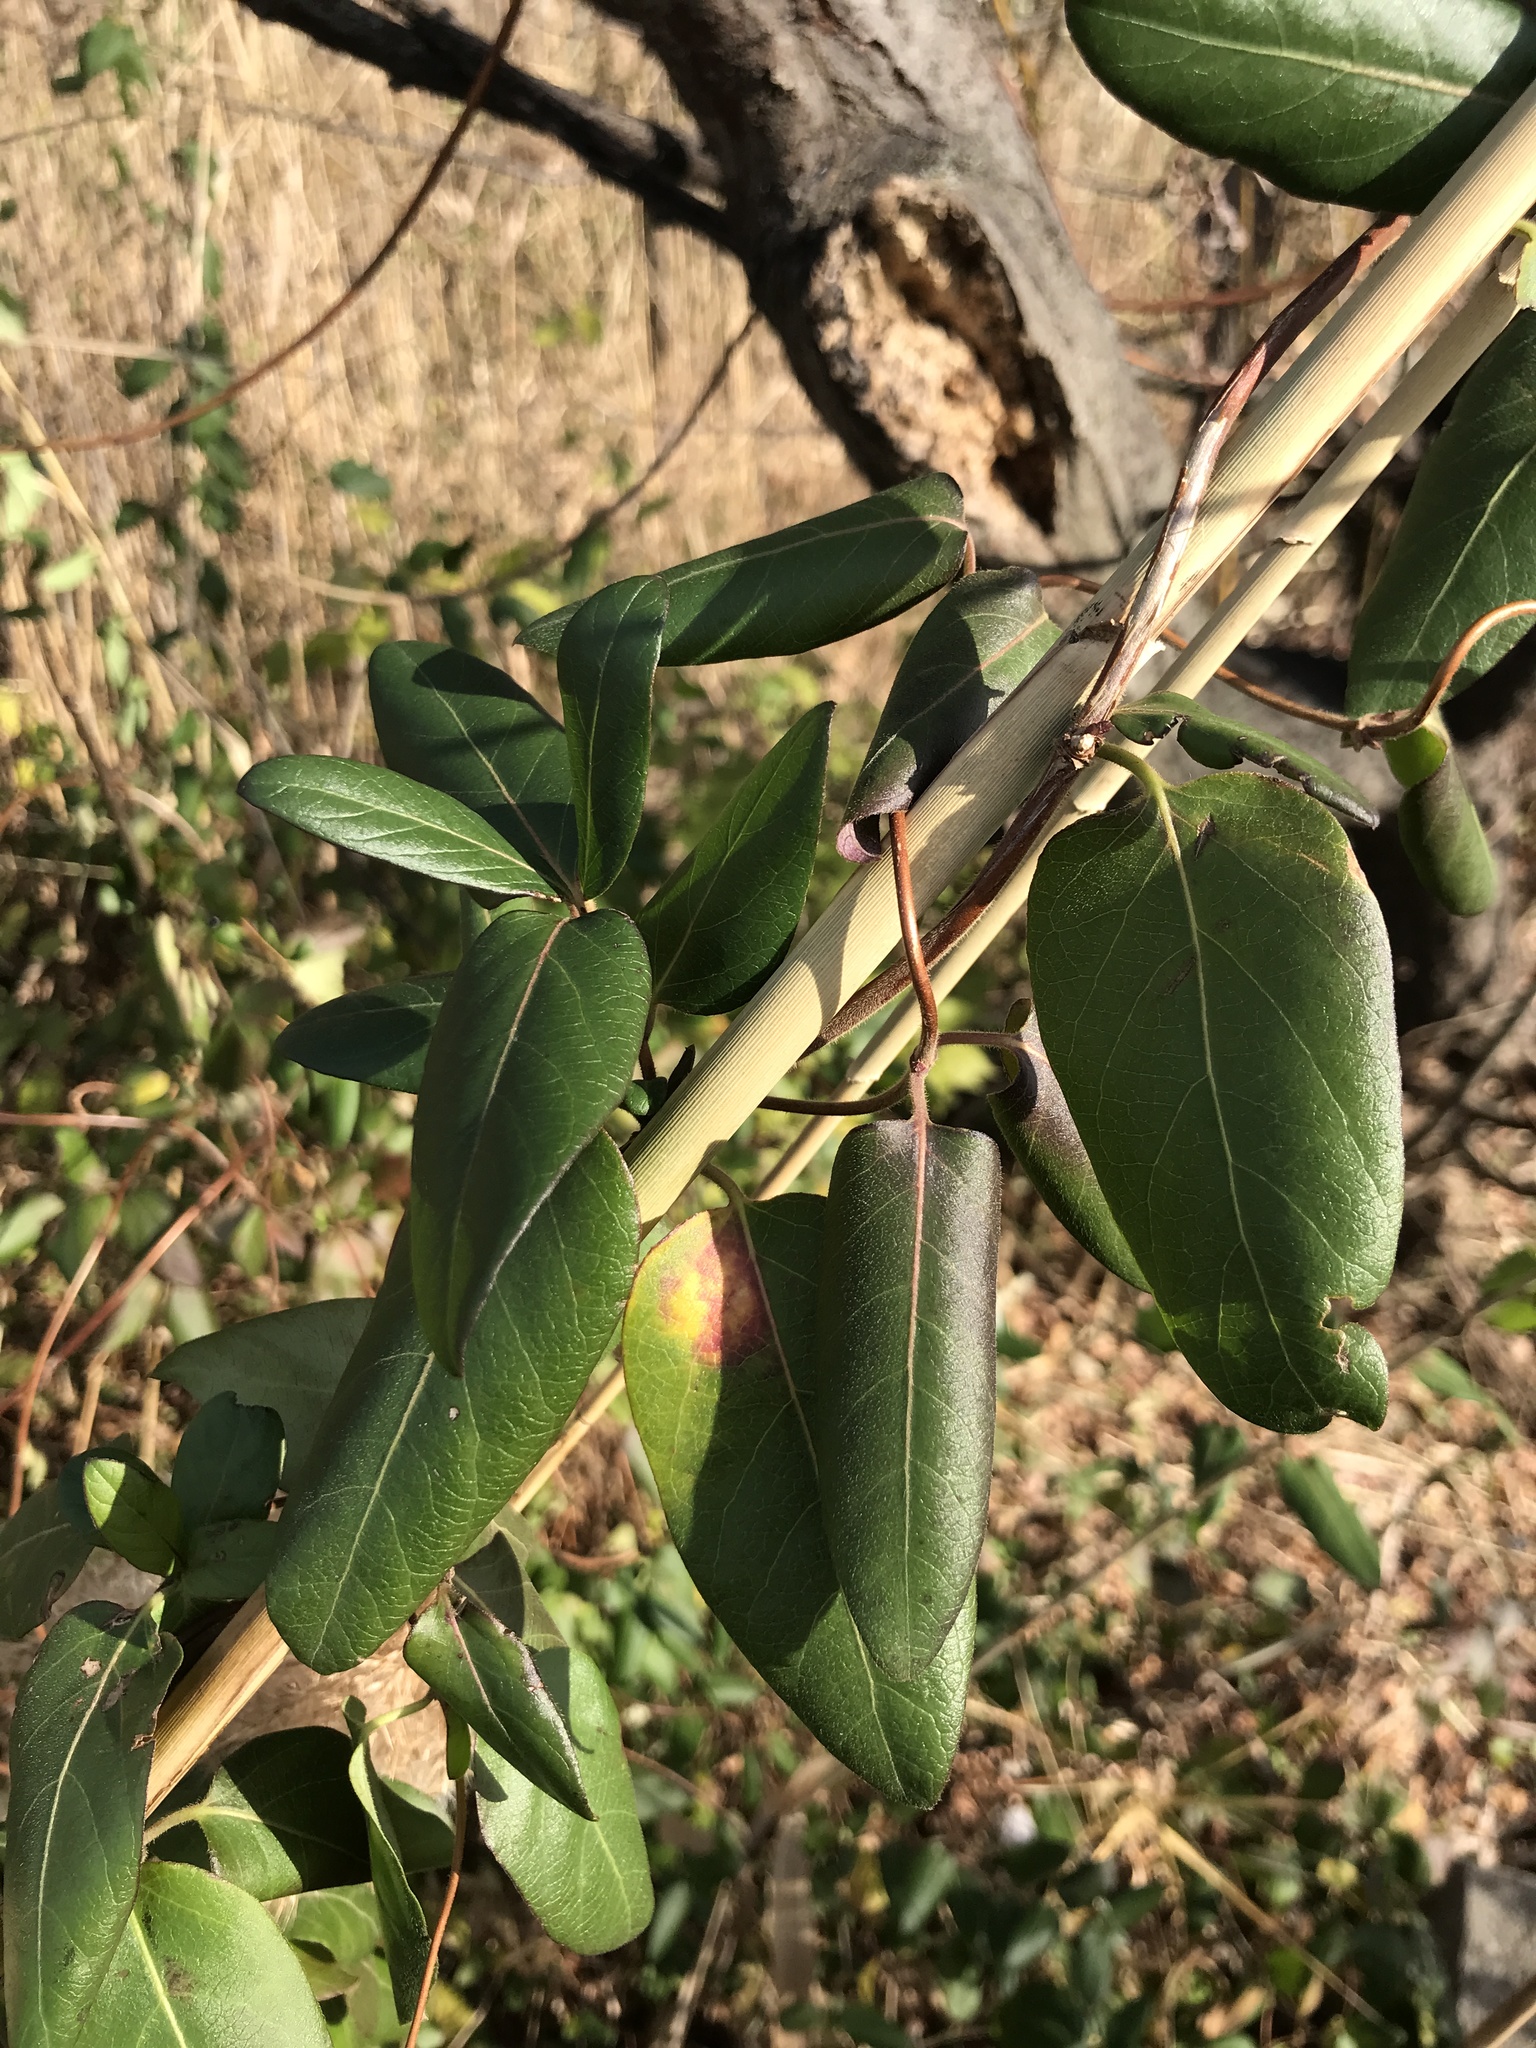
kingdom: Plantae
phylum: Tracheophyta
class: Magnoliopsida
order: Dipsacales
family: Caprifoliaceae
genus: Lonicera
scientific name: Lonicera japonica
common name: Japanese honeysuckle
